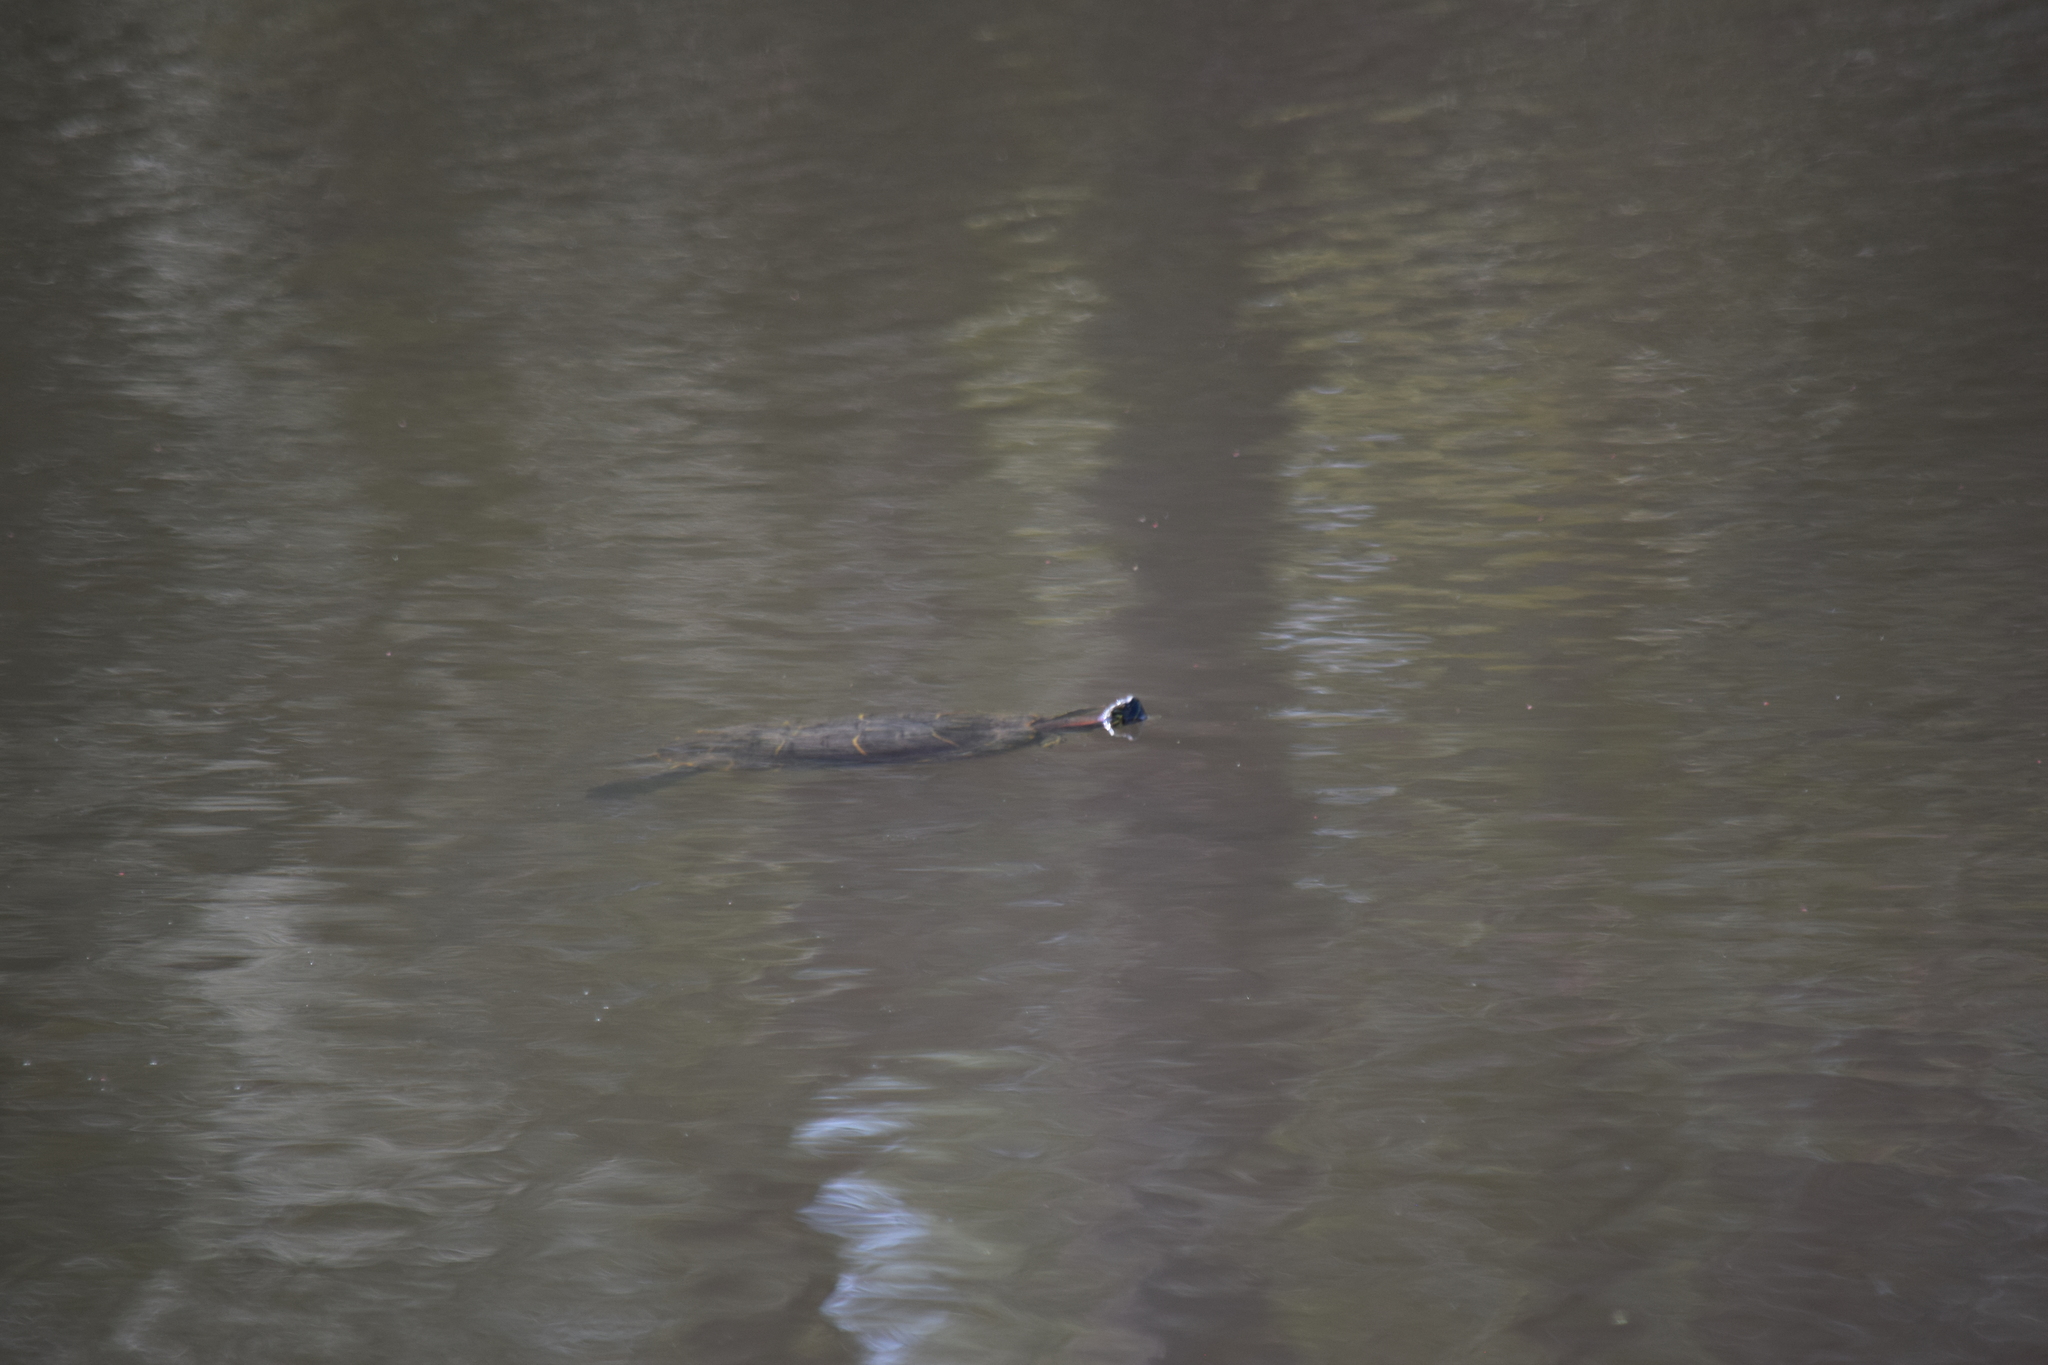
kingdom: Animalia
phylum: Chordata
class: Testudines
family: Emydidae
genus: Trachemys
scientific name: Trachemys scripta
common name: Slider
